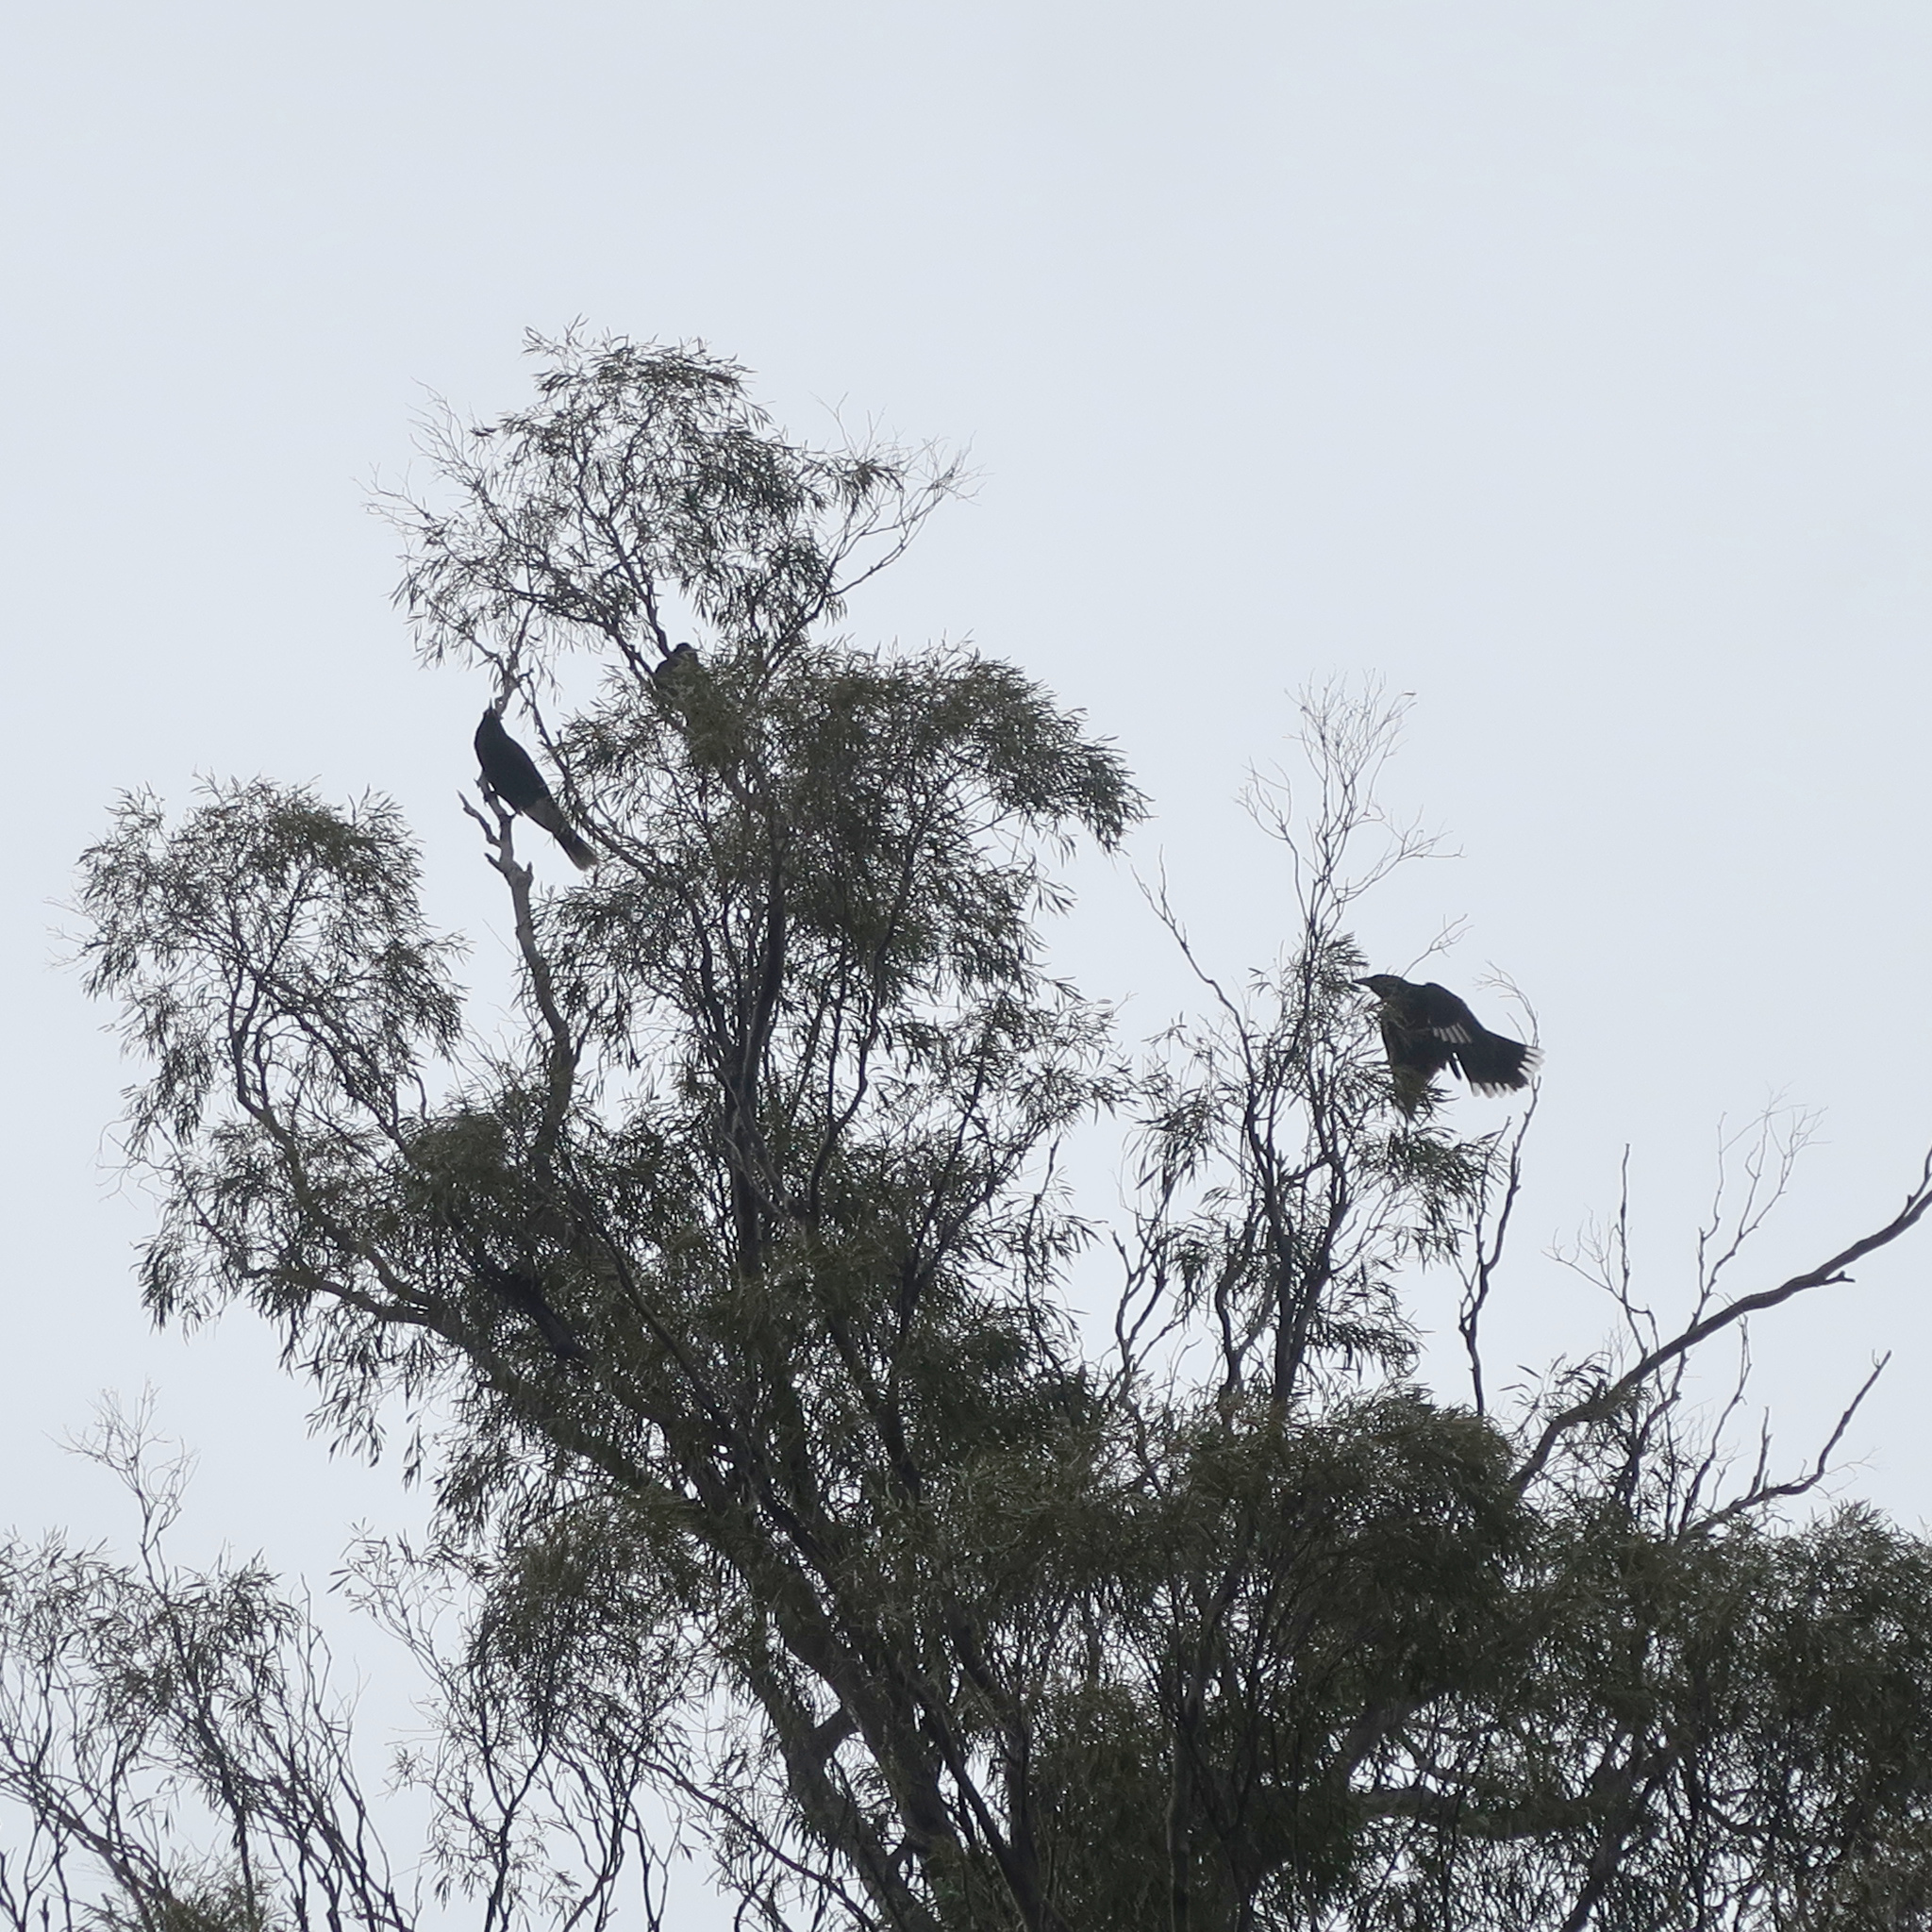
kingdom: Animalia
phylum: Chordata
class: Aves
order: Passeriformes
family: Cracticidae
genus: Strepera
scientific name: Strepera versicolor
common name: Grey currawong
